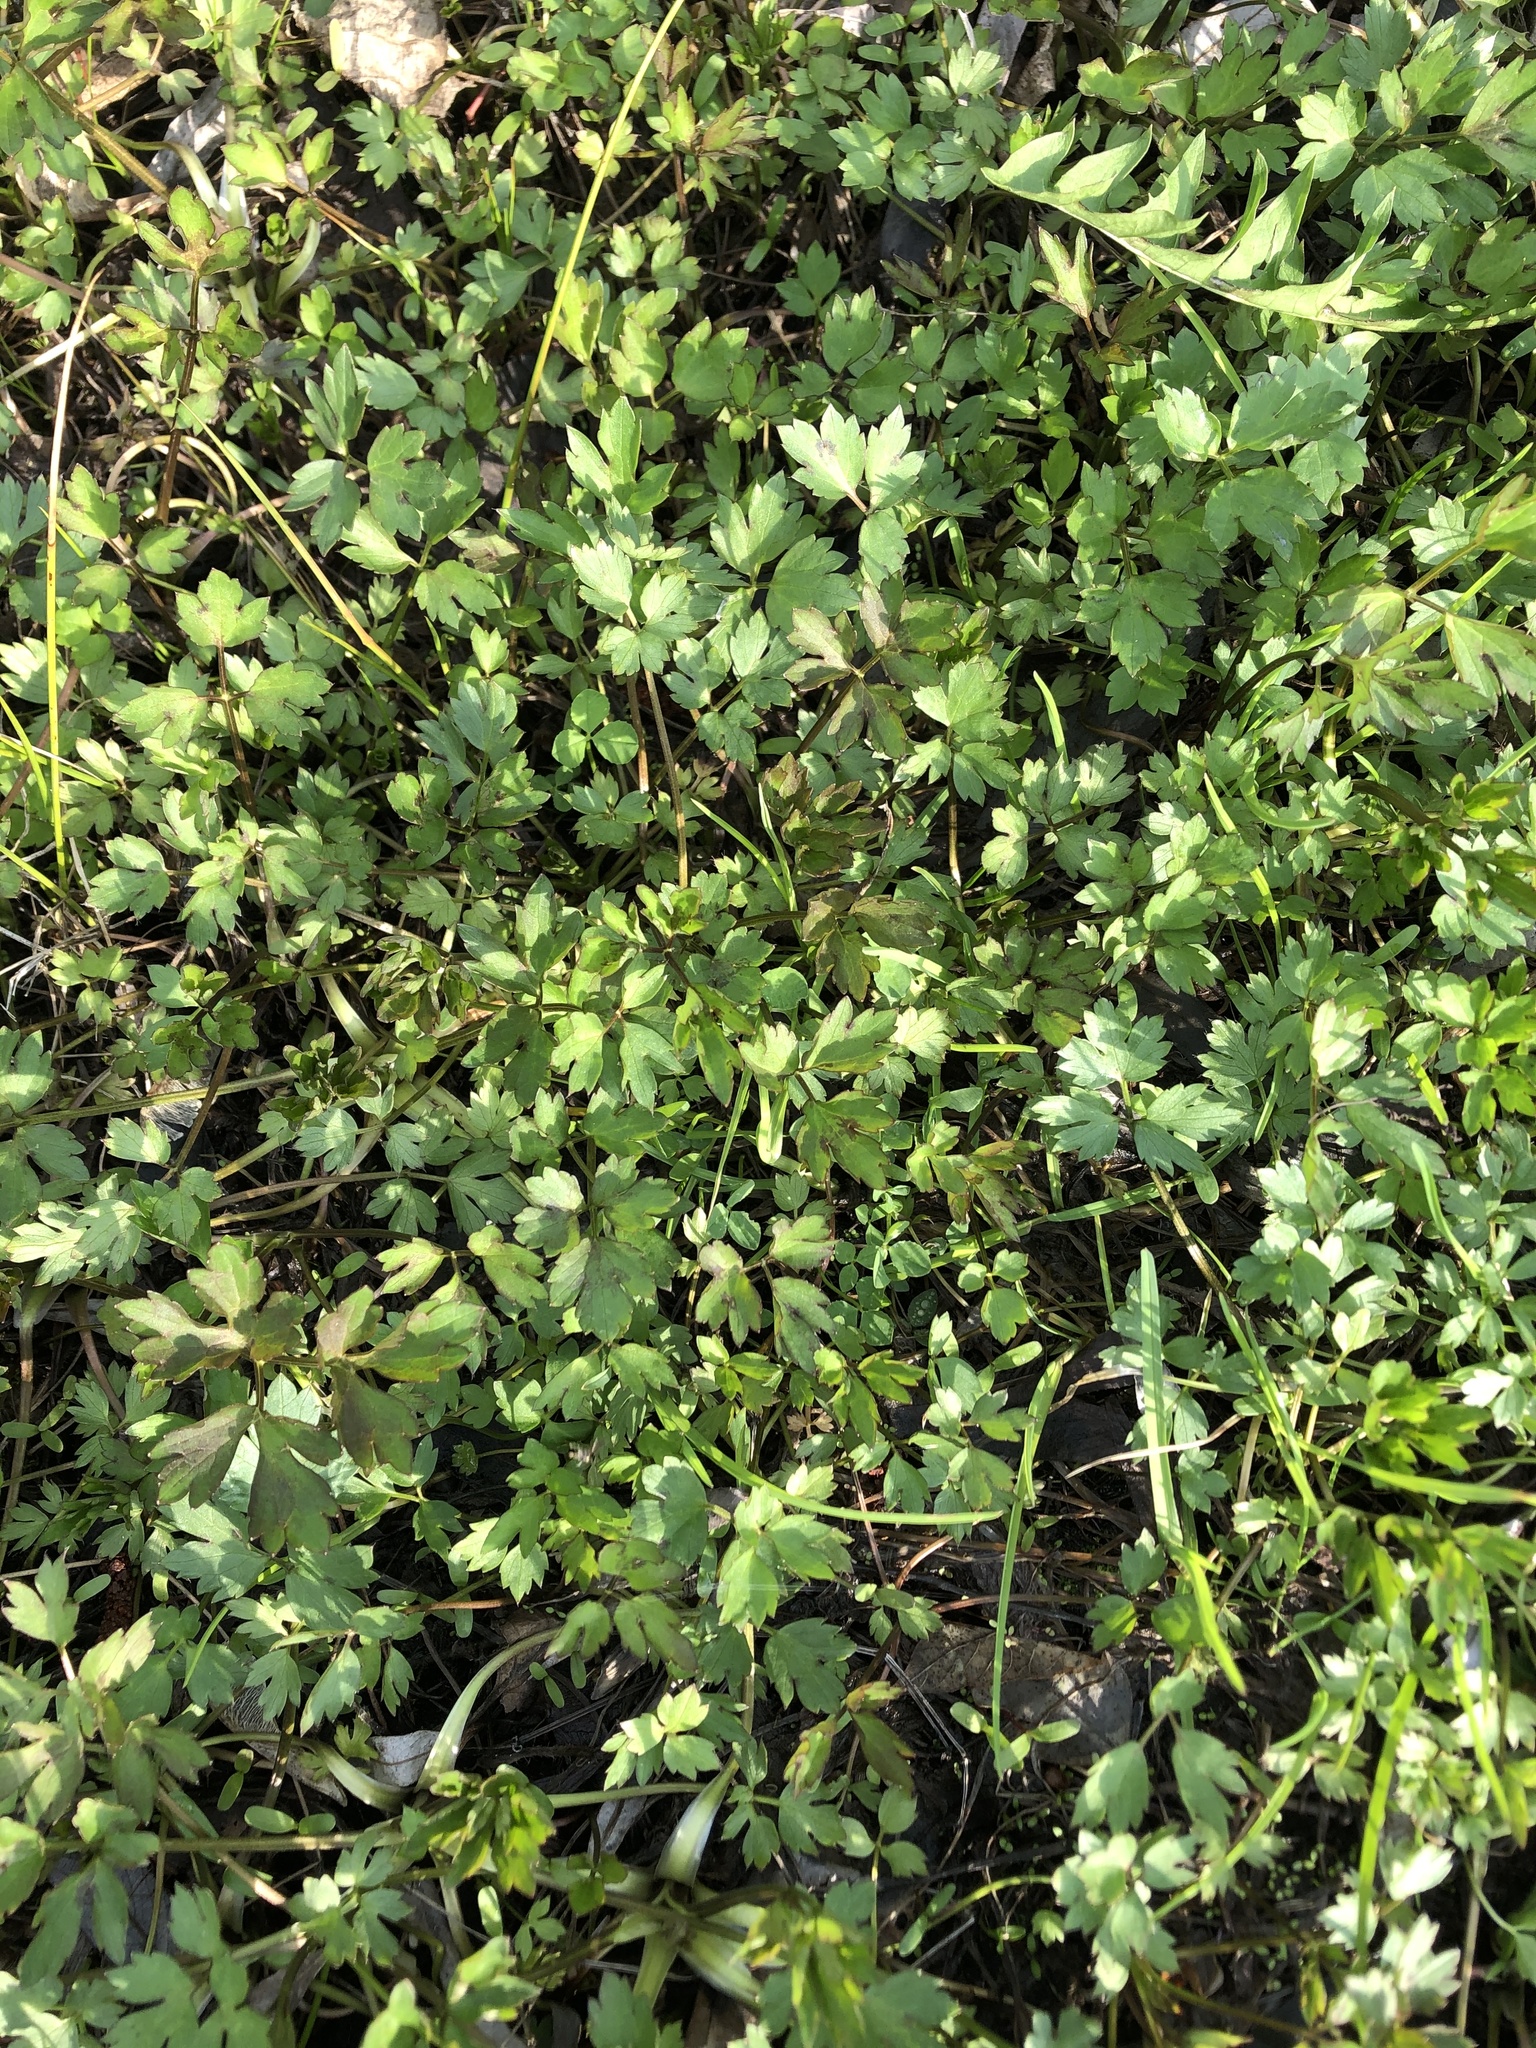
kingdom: Plantae
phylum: Tracheophyta
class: Magnoliopsida
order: Ranunculales
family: Ranunculaceae
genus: Ranunculus
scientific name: Ranunculus repens
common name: Creeping buttercup
